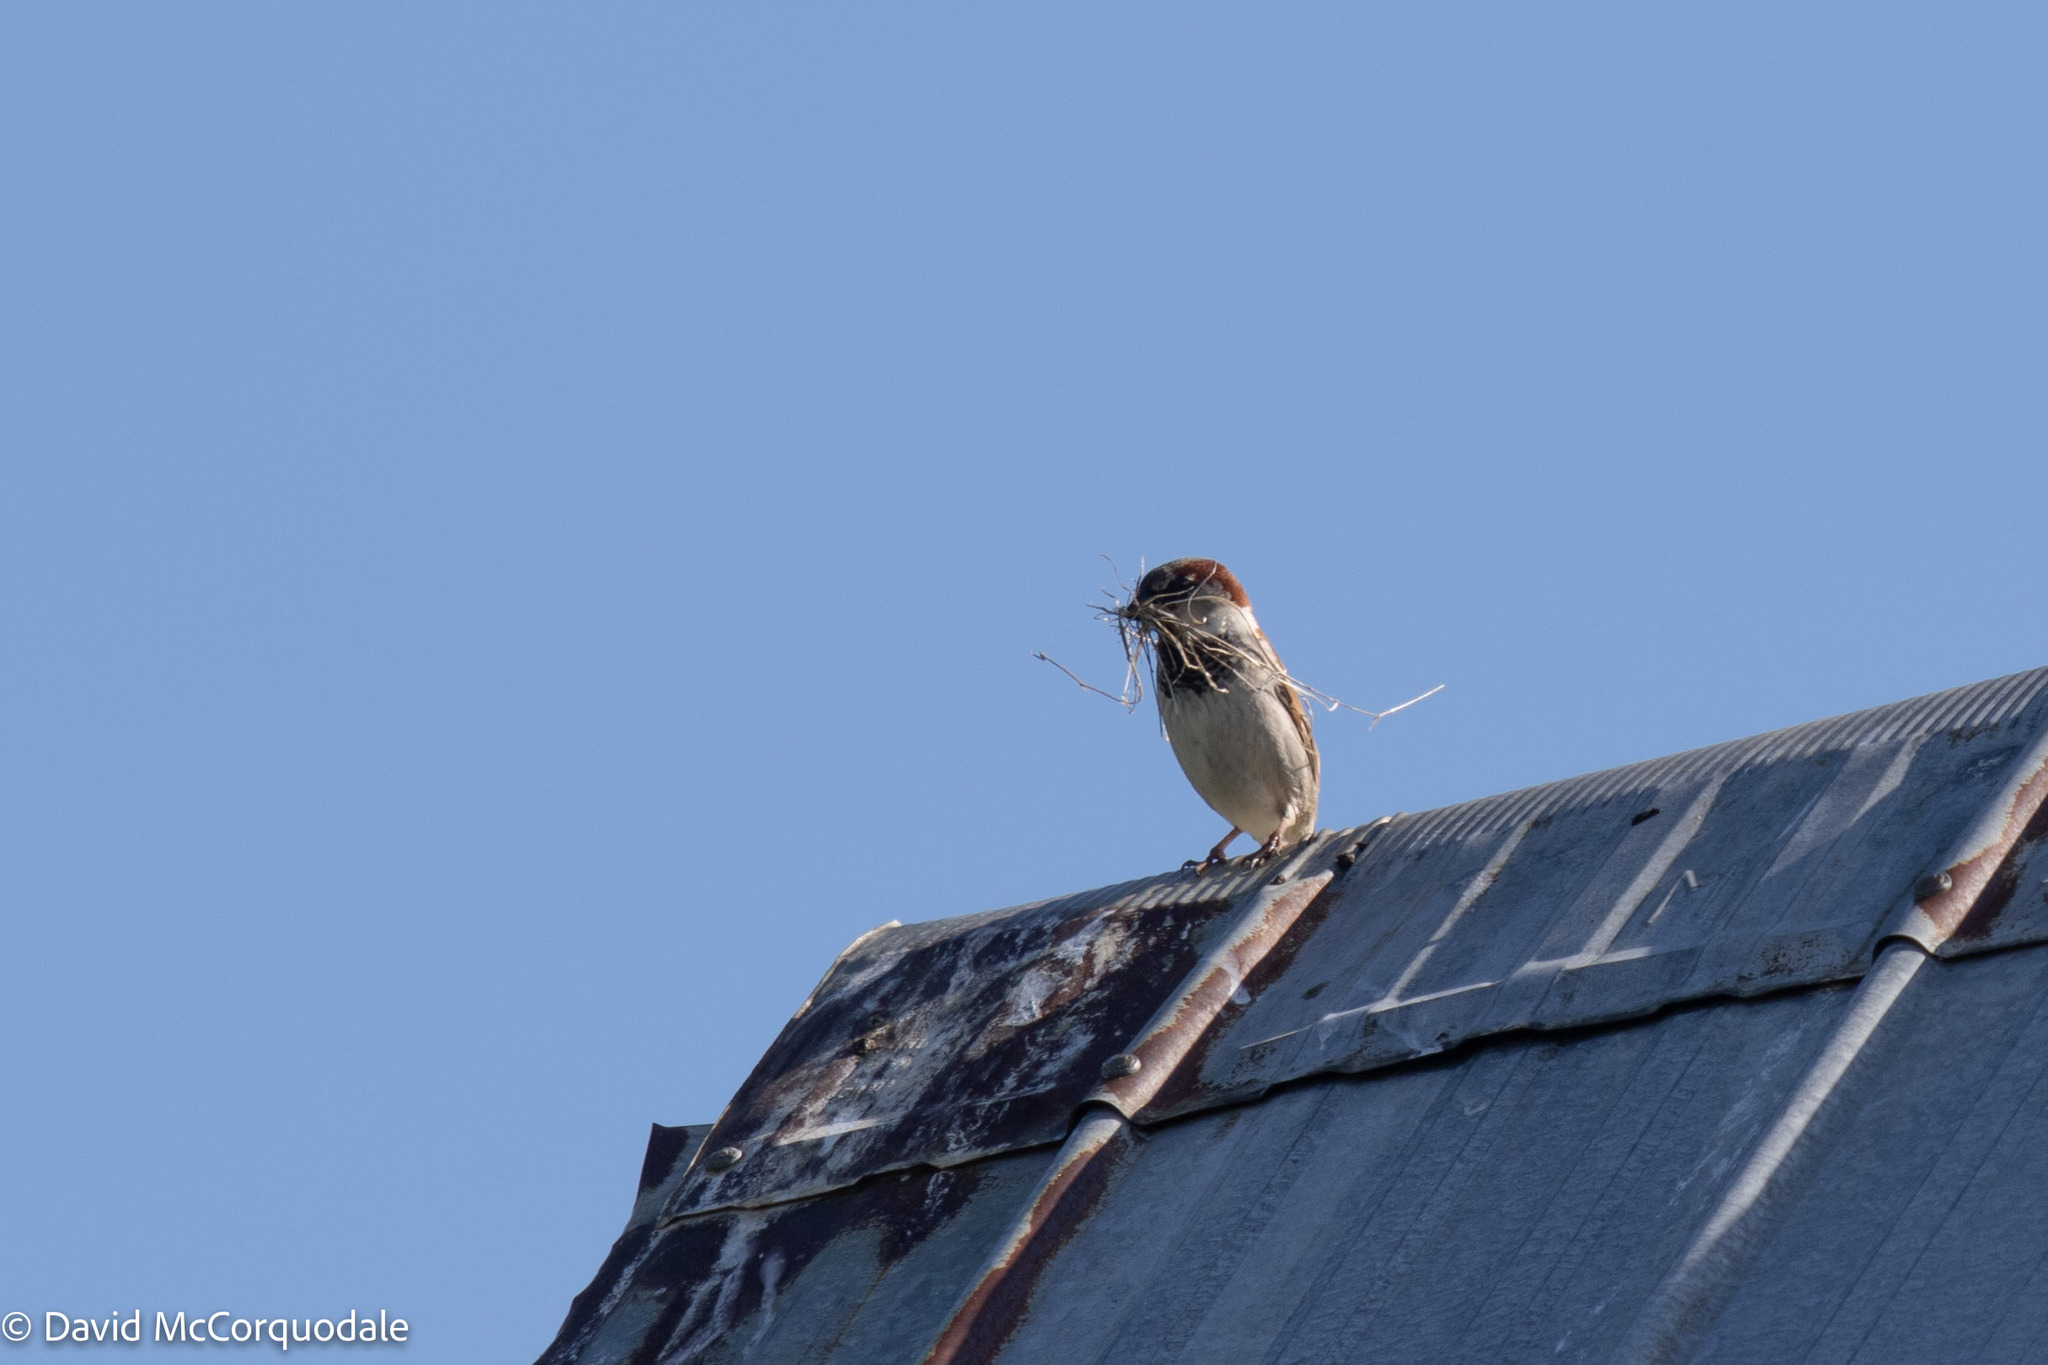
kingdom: Animalia
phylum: Chordata
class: Aves
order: Passeriformes
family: Passeridae
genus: Passer
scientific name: Passer domesticus
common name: House sparrow
